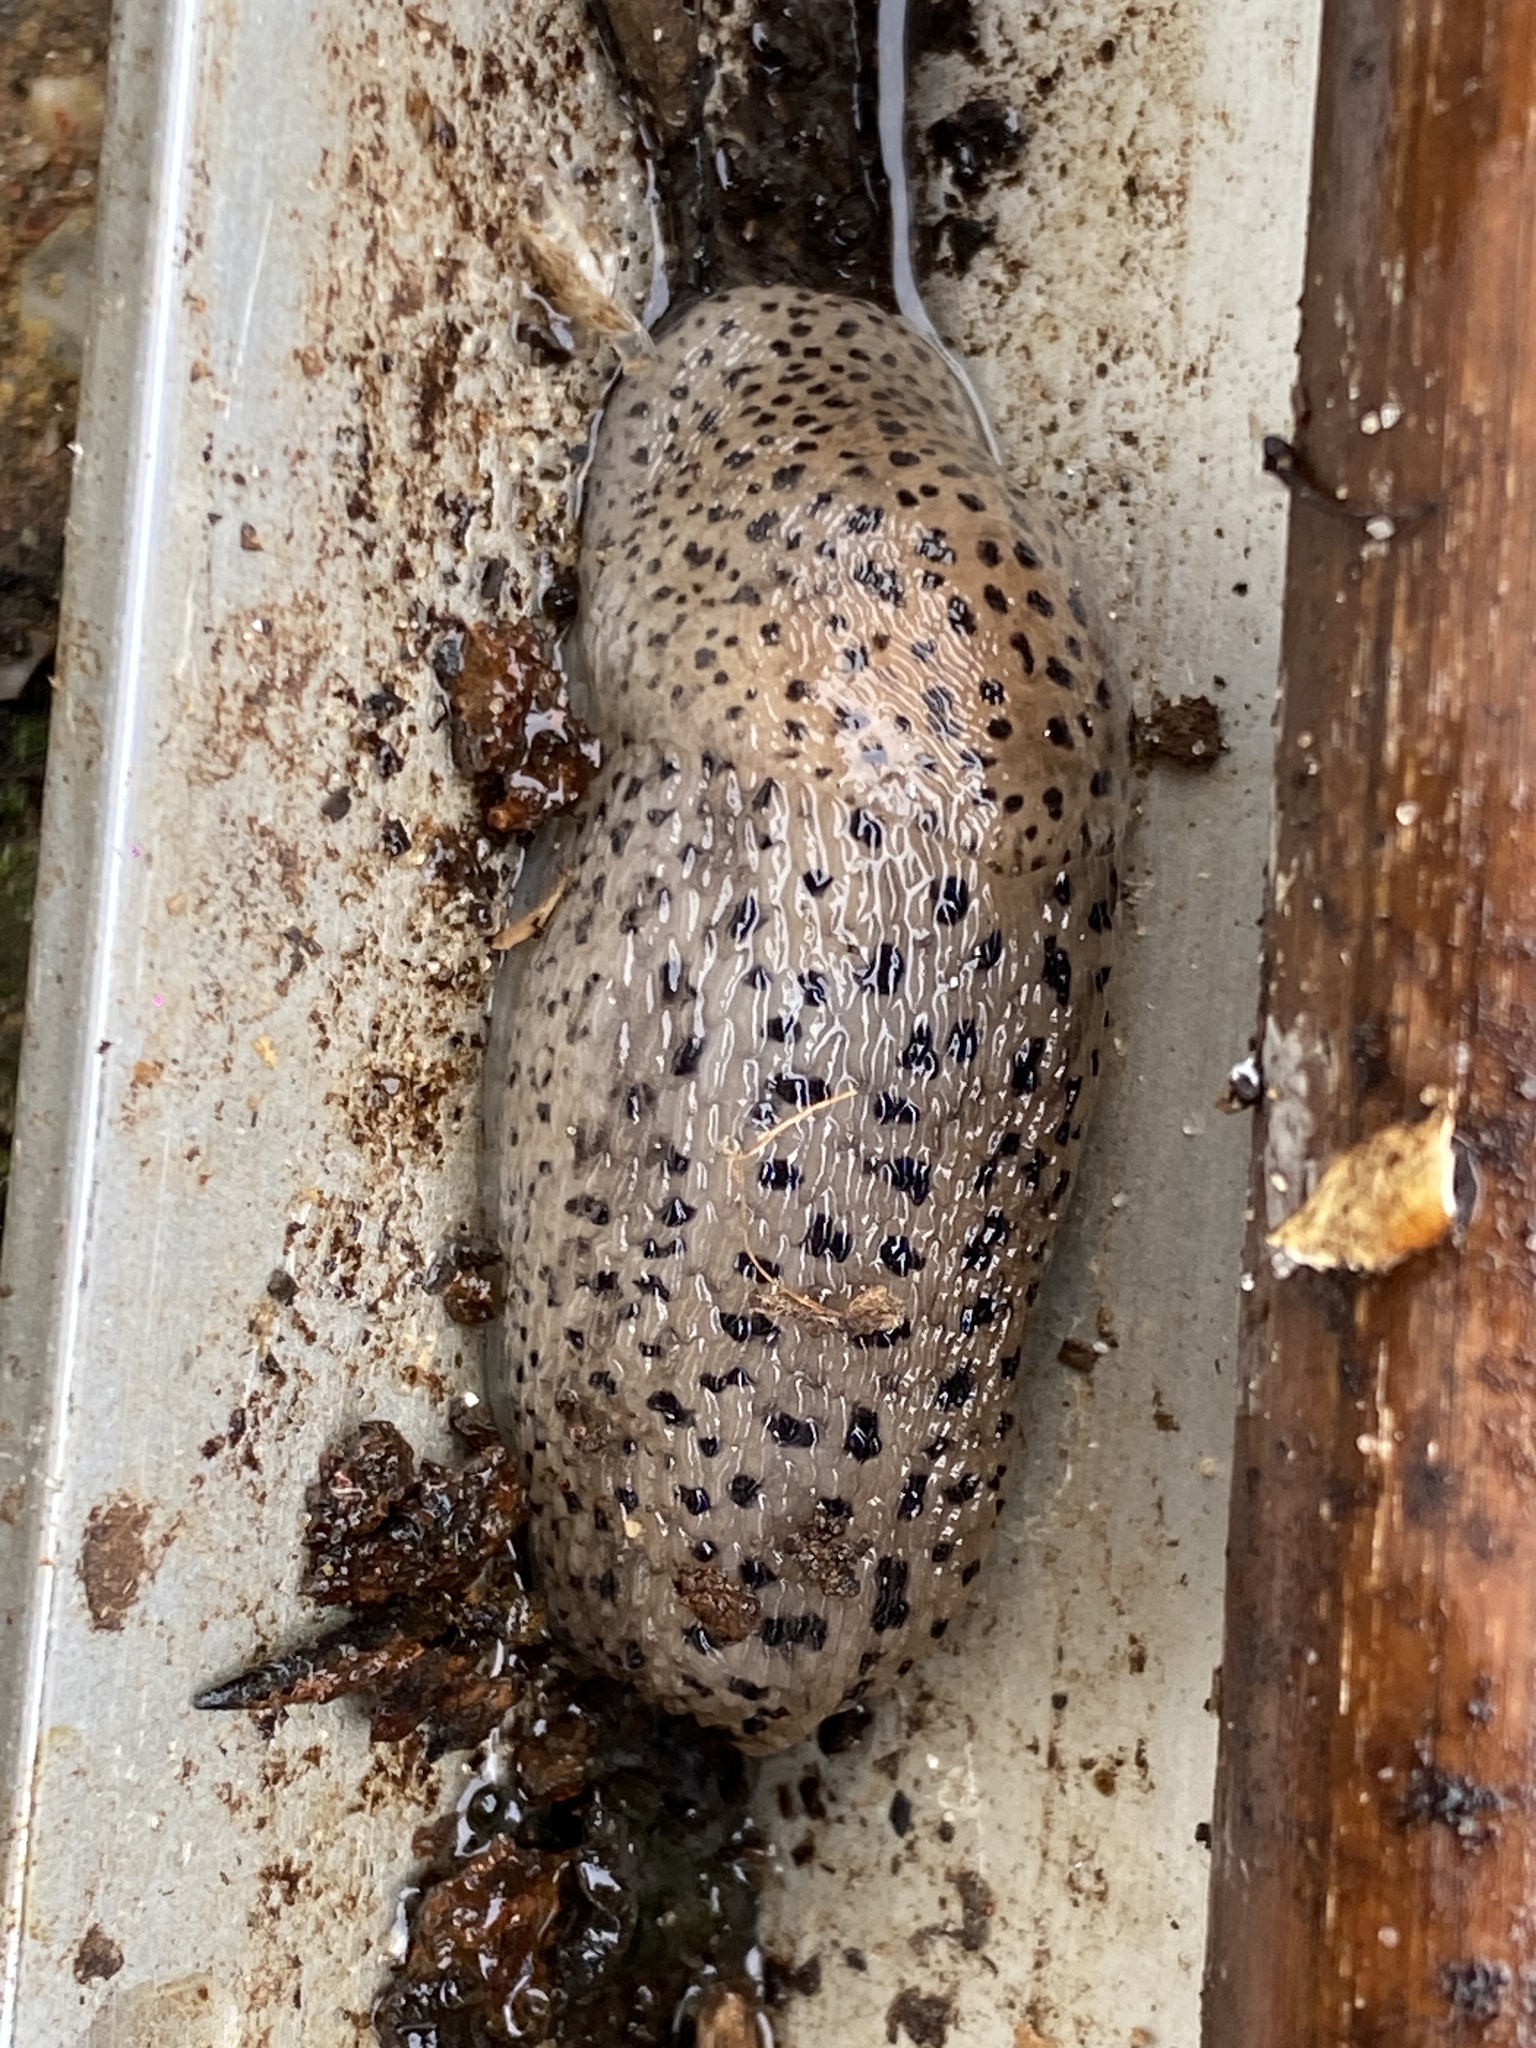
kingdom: Animalia
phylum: Mollusca
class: Gastropoda
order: Stylommatophora
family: Limacidae
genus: Limax
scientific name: Limax maximus
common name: Great grey slug
